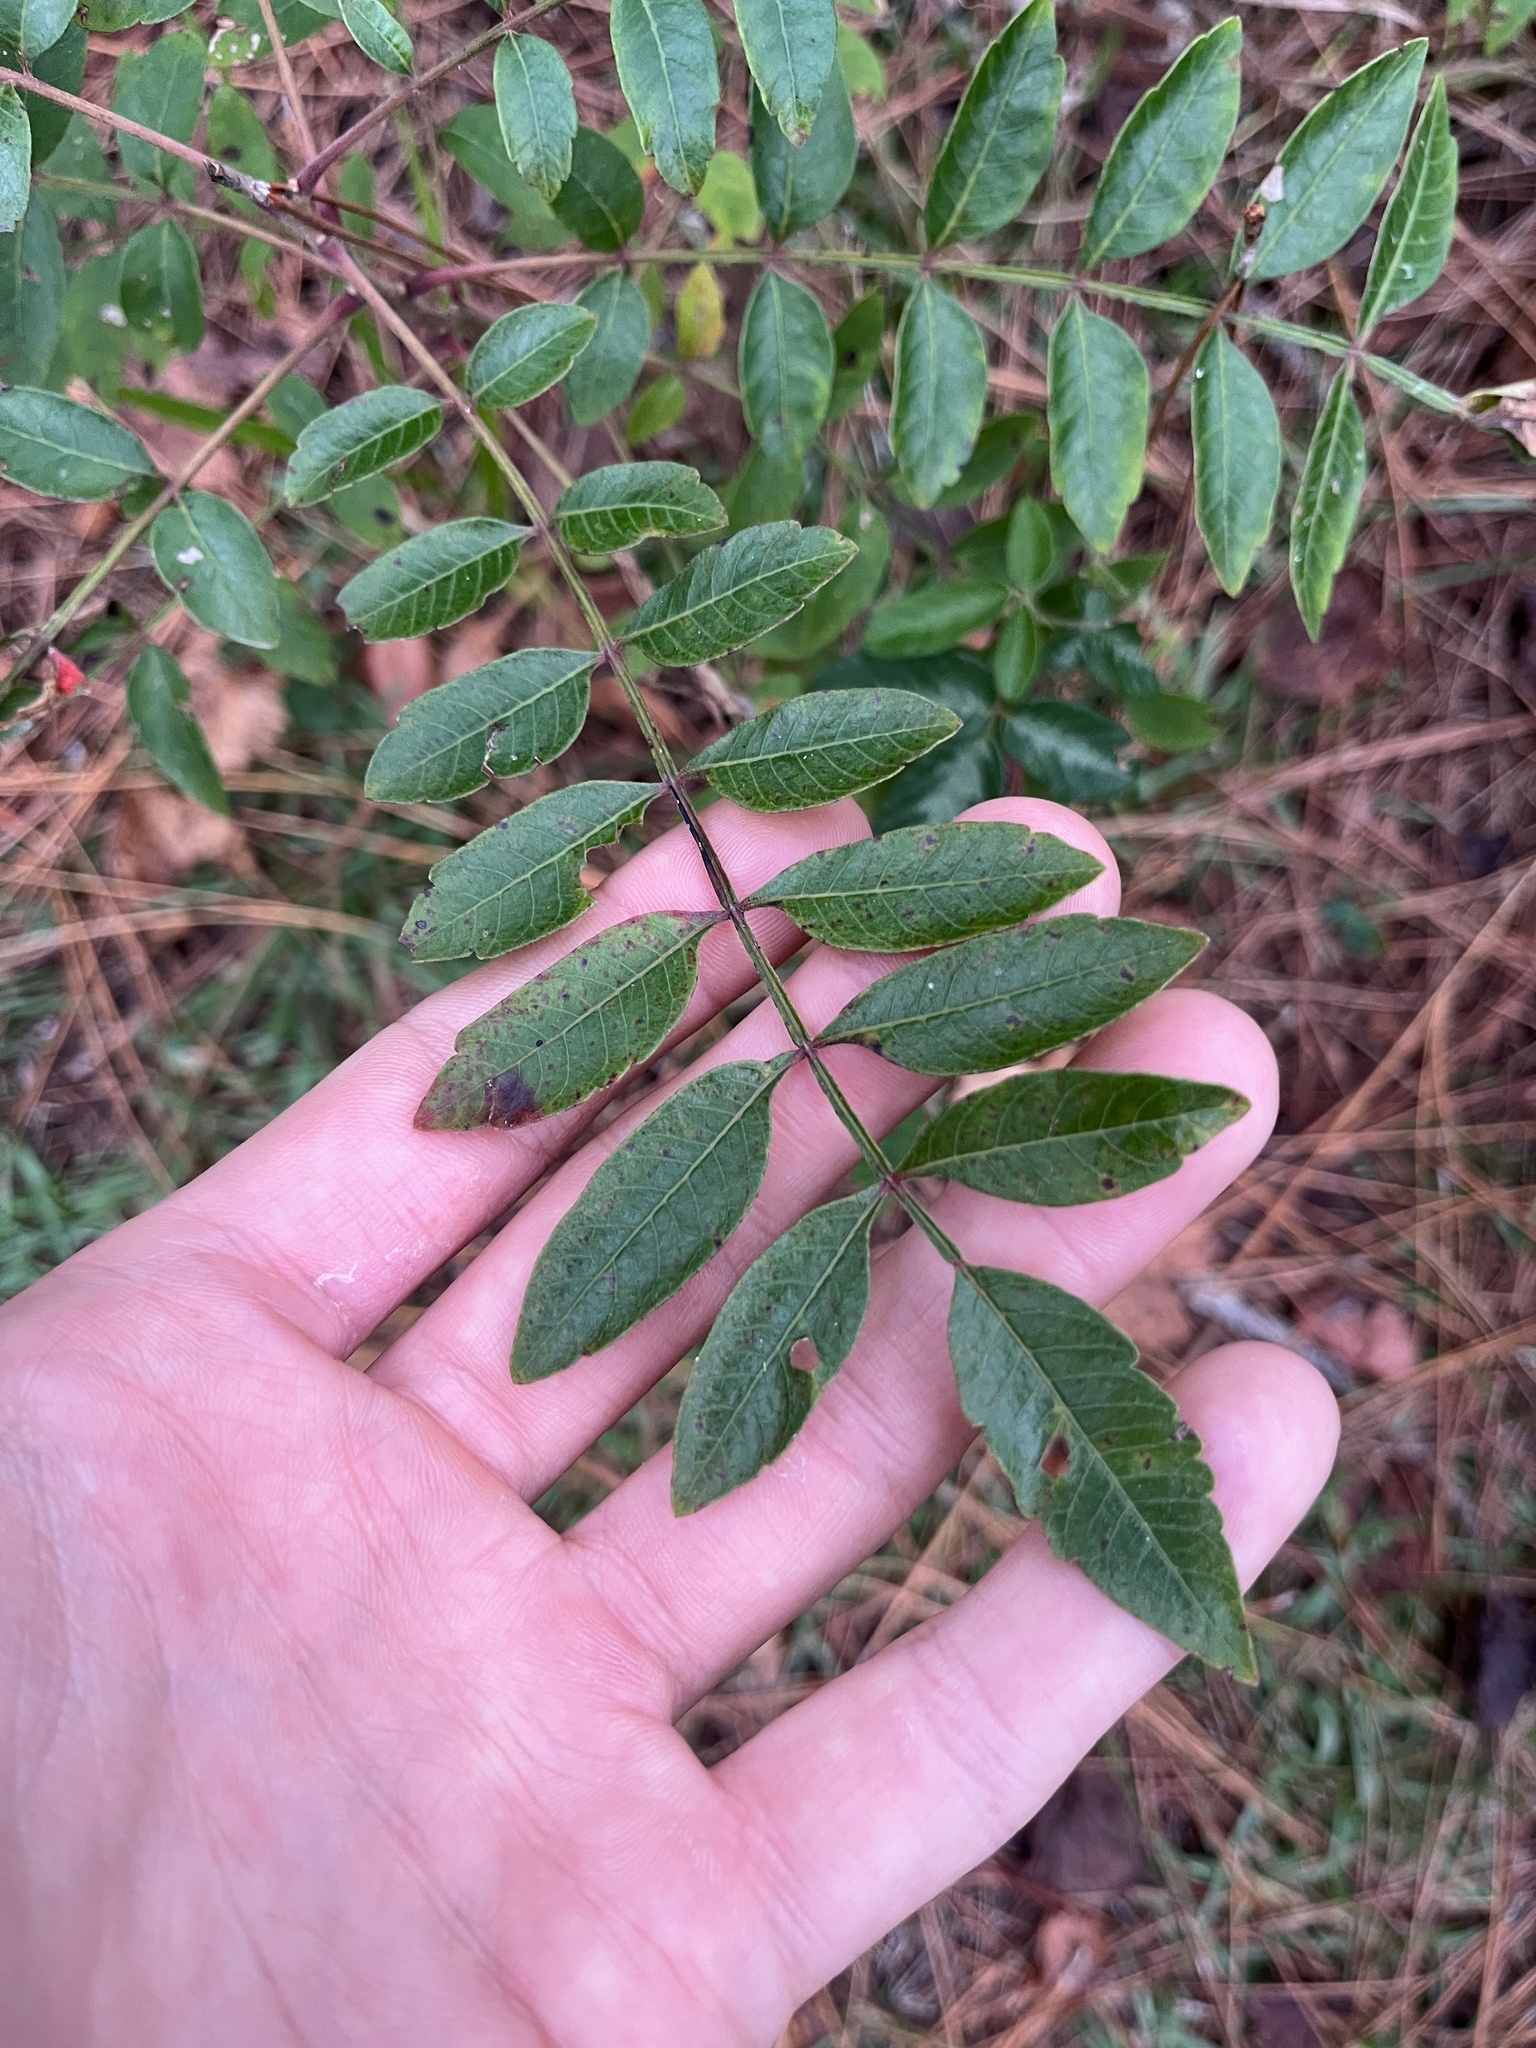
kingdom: Plantae
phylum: Tracheophyta
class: Magnoliopsida
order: Sapindales
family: Anacardiaceae
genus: Rhus
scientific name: Rhus copallina
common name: Shining sumac
